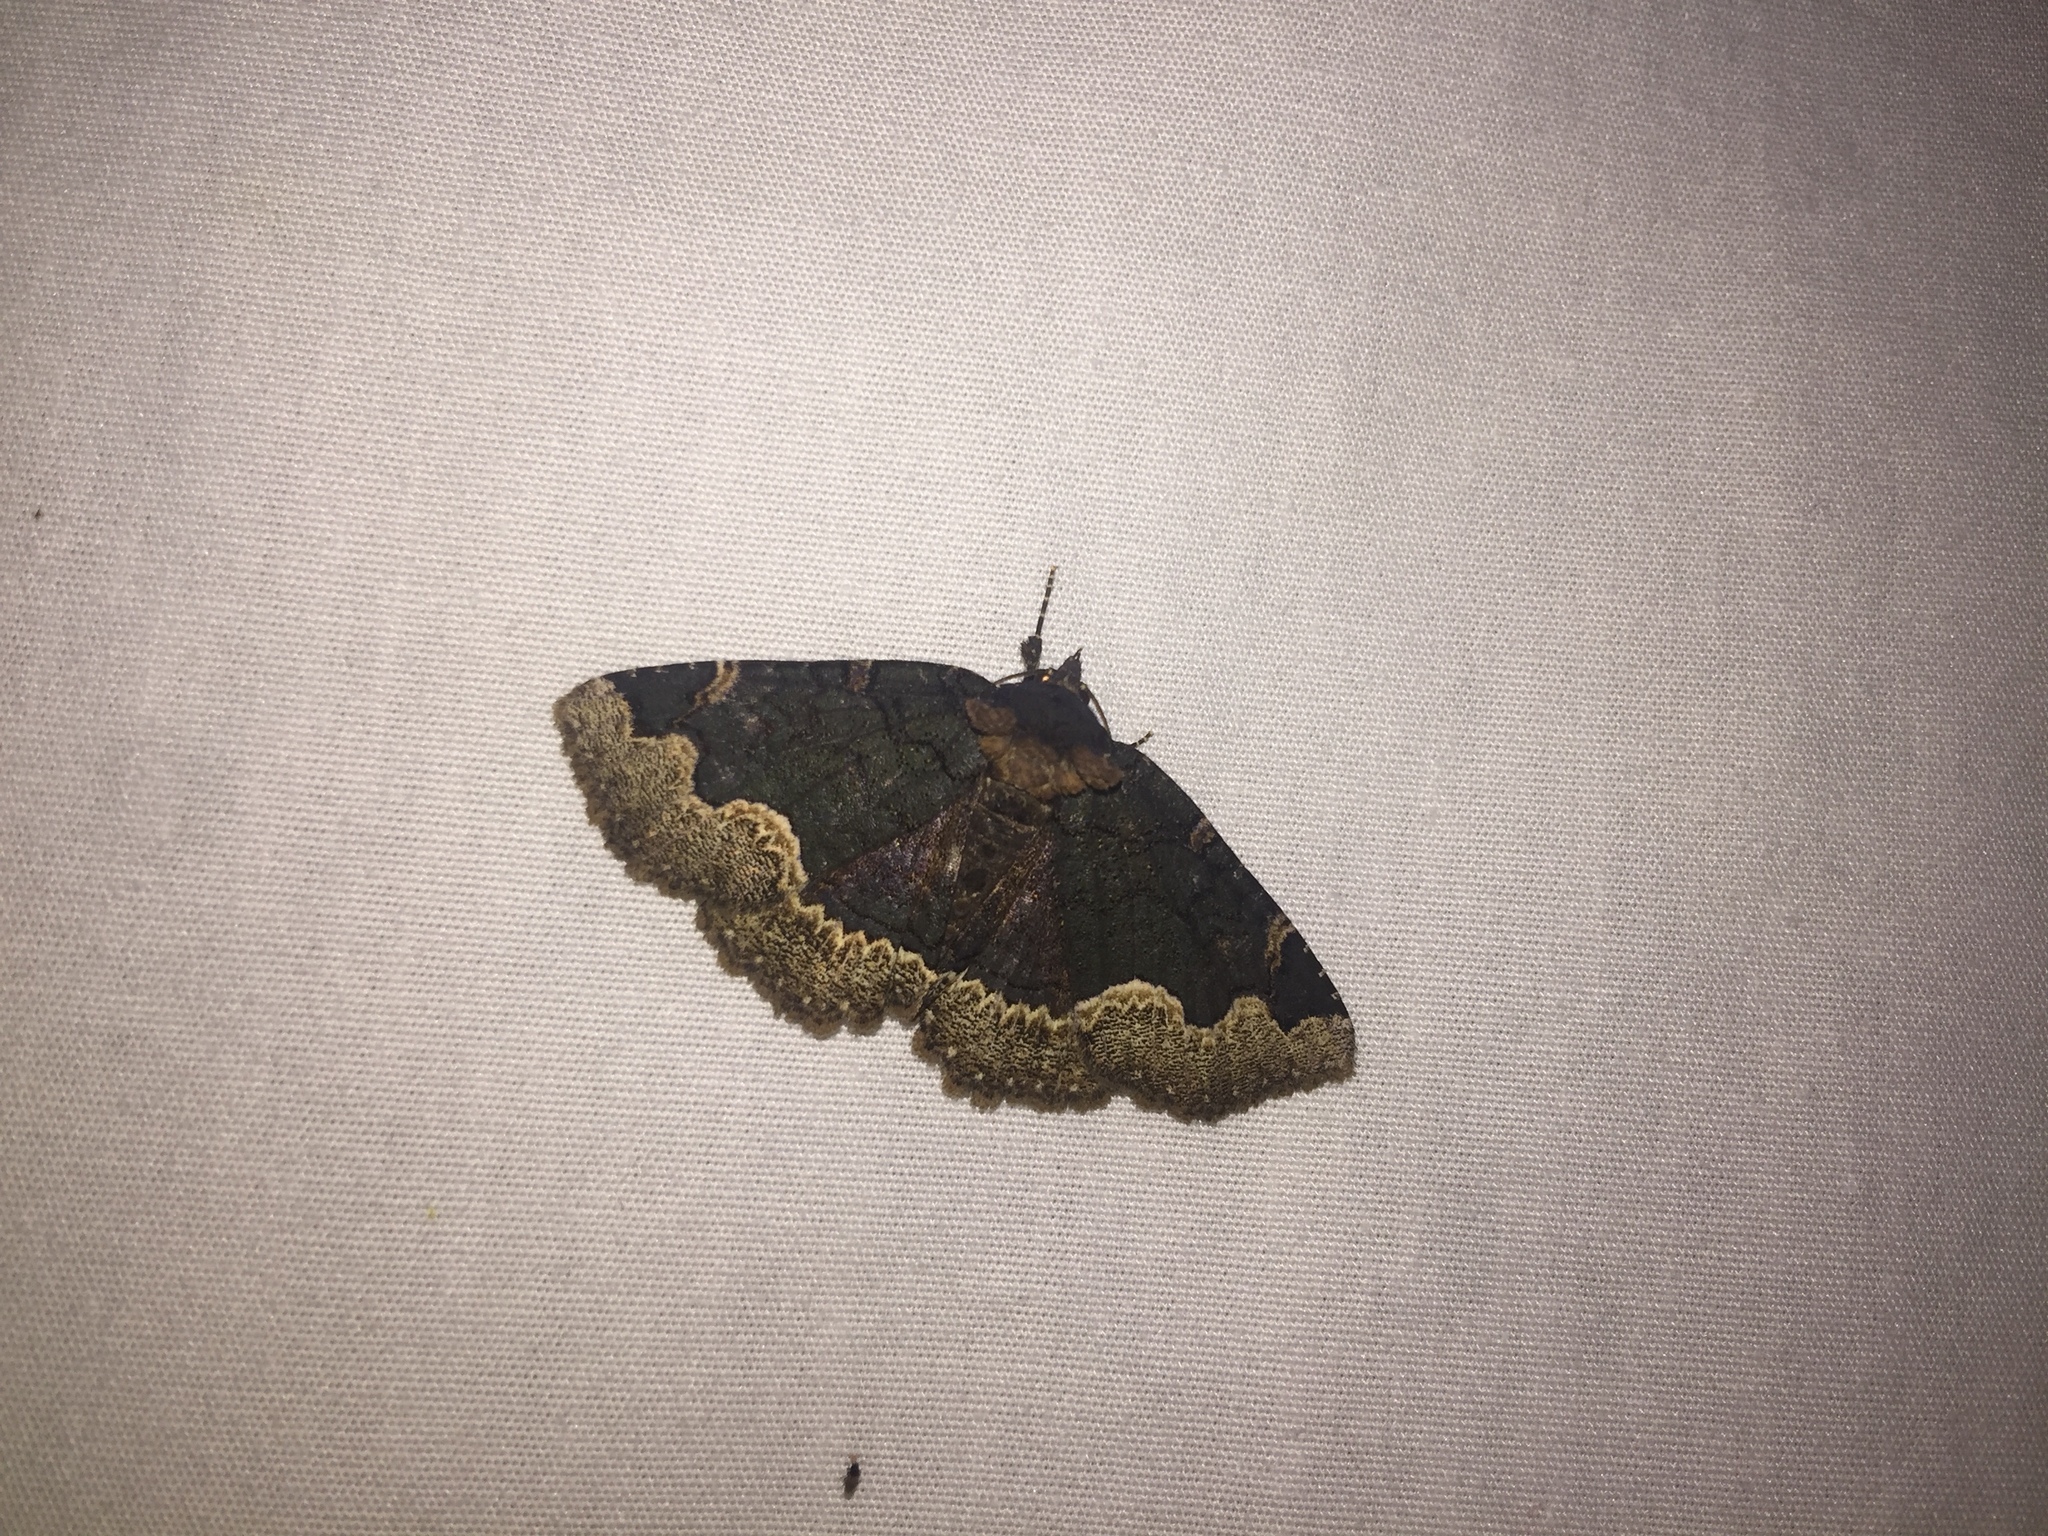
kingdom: Animalia
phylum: Arthropoda
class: Insecta
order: Lepidoptera
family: Erebidae
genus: Zale
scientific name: Zale horrida
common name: Horrid zale moth
